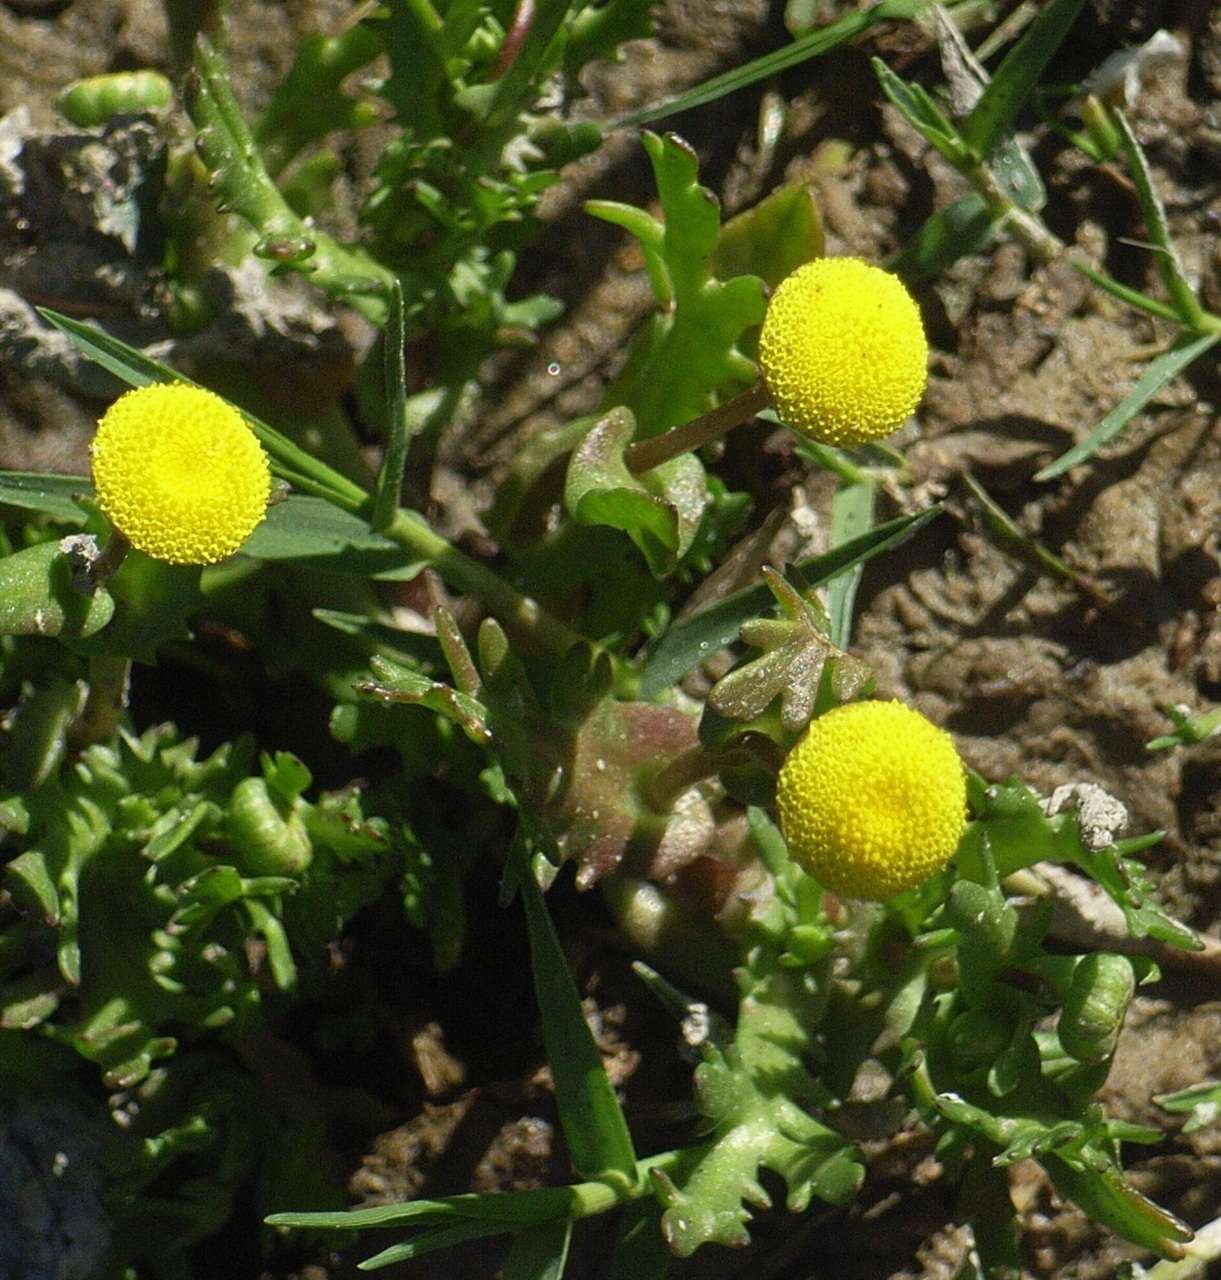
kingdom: Plantae
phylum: Tracheophyta
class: Magnoliopsida
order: Asterales
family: Asteraceae
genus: Cotula
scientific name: Cotula coronopifolia
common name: Buttonweed
